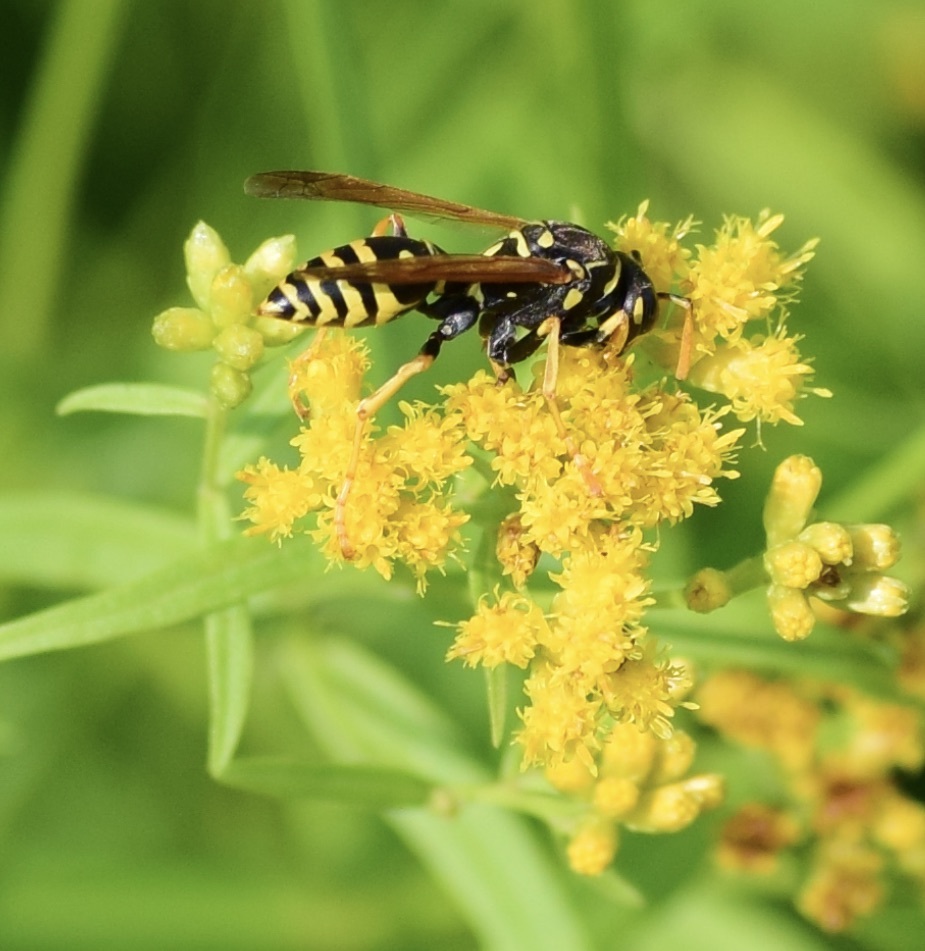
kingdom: Animalia
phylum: Arthropoda
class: Insecta
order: Hymenoptera
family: Eumenidae
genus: Polistes
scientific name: Polistes dominula
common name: Paper wasp
